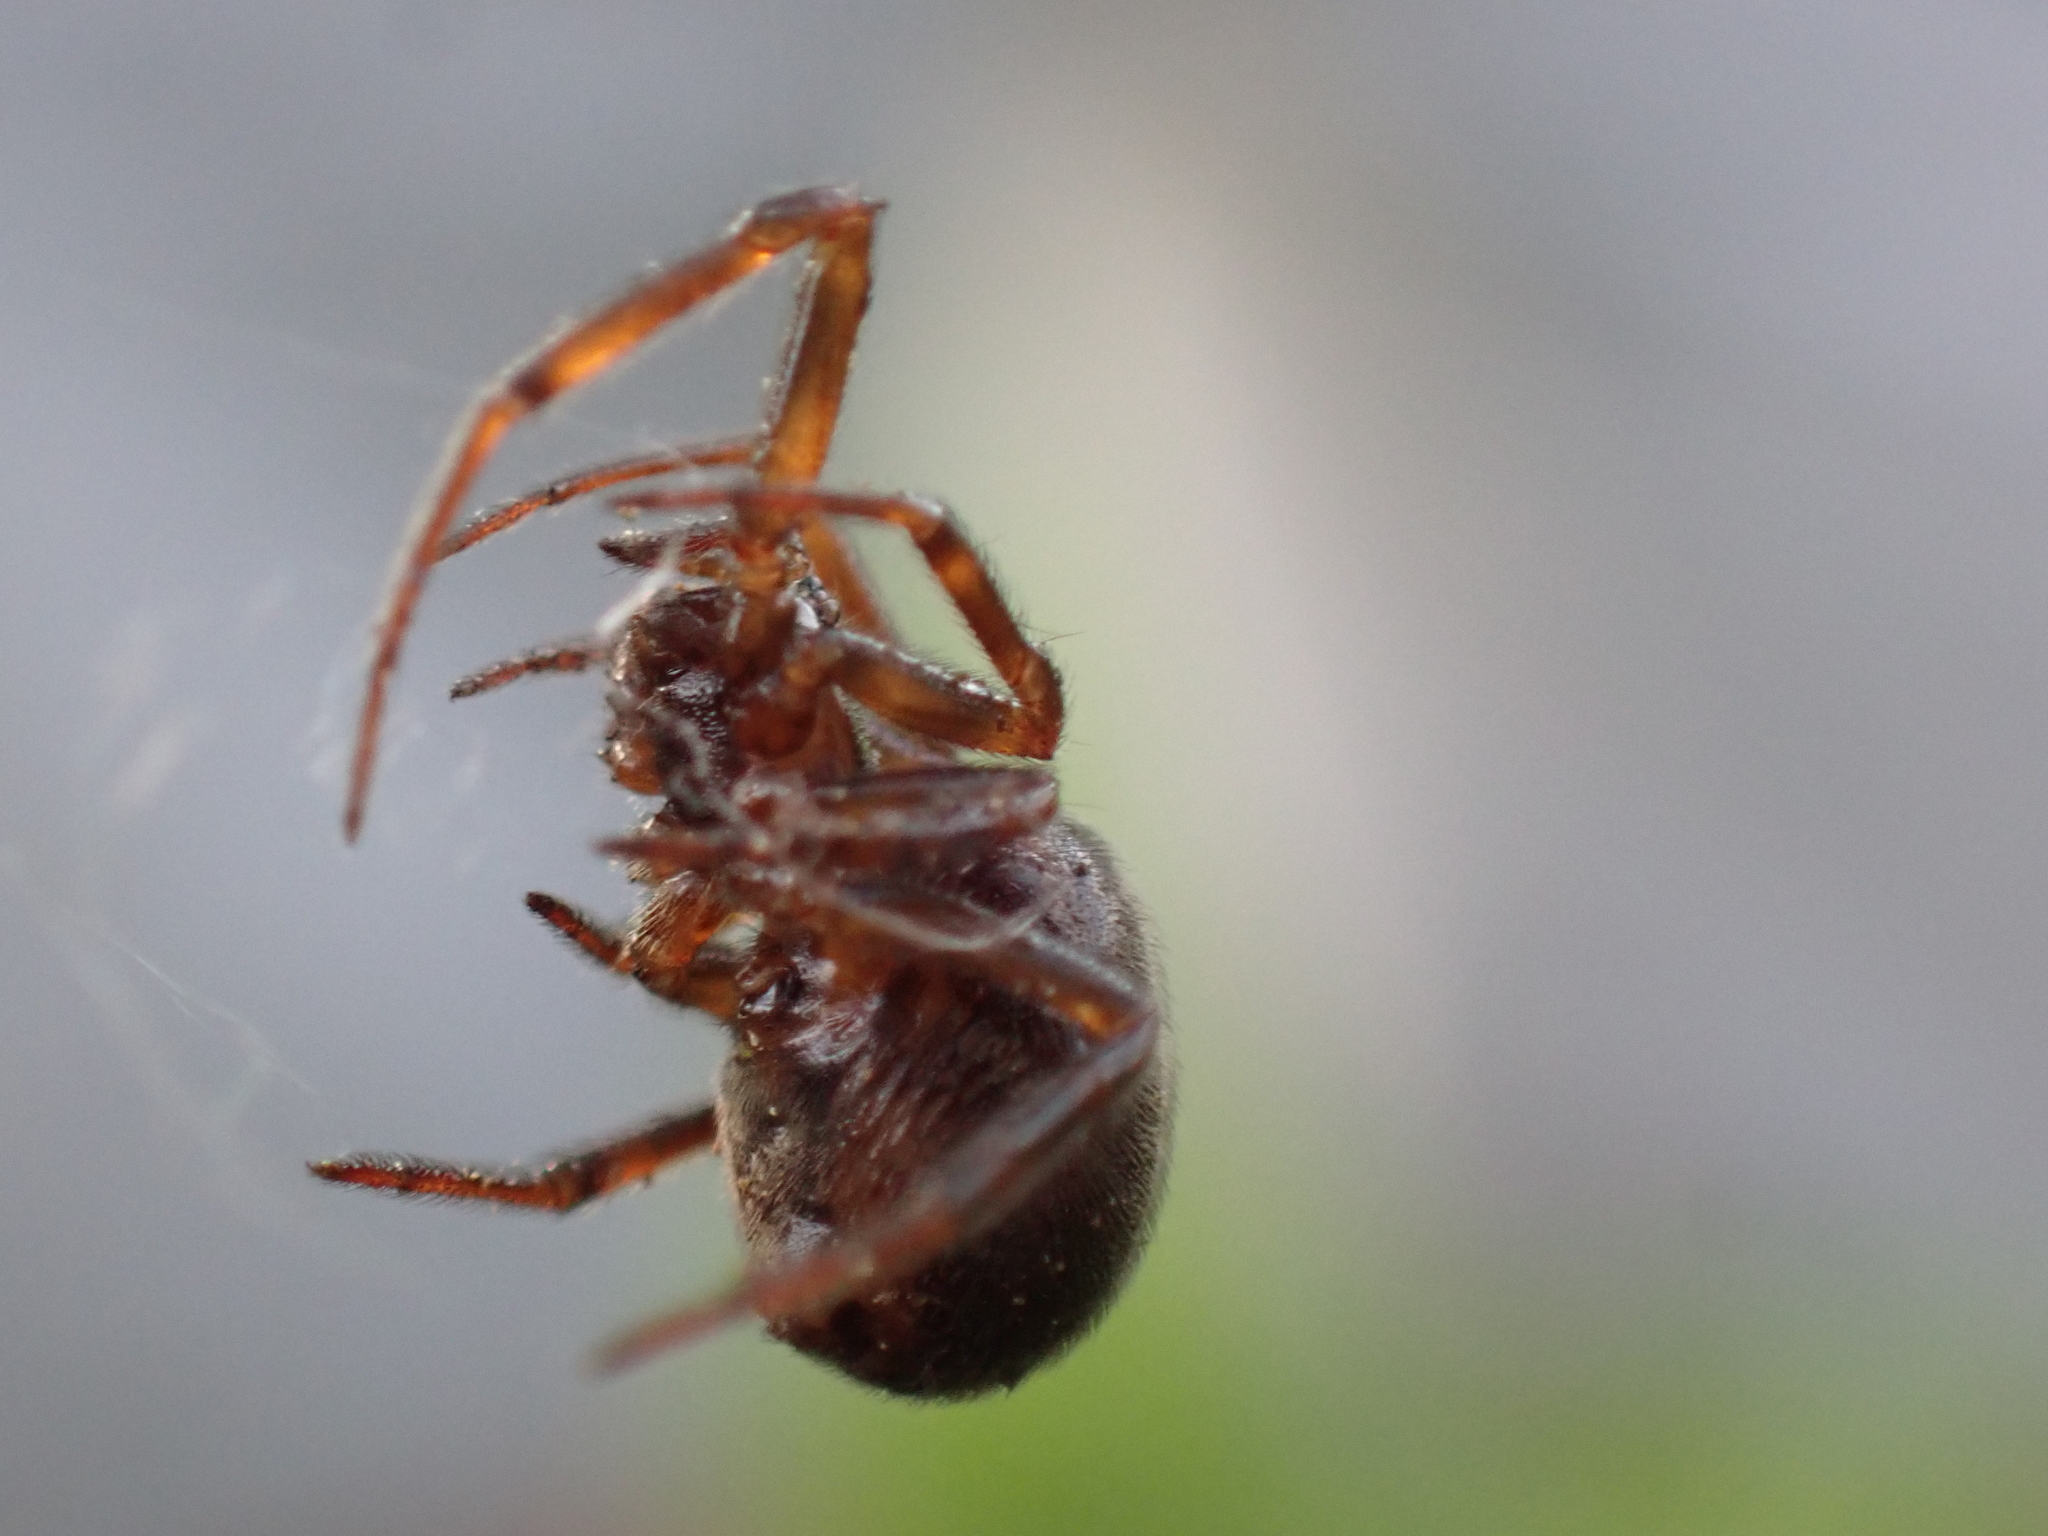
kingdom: Animalia
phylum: Arthropoda
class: Arachnida
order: Araneae
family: Theridiidae
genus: Steatoda
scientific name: Steatoda borealis
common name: Boreal combfoot
